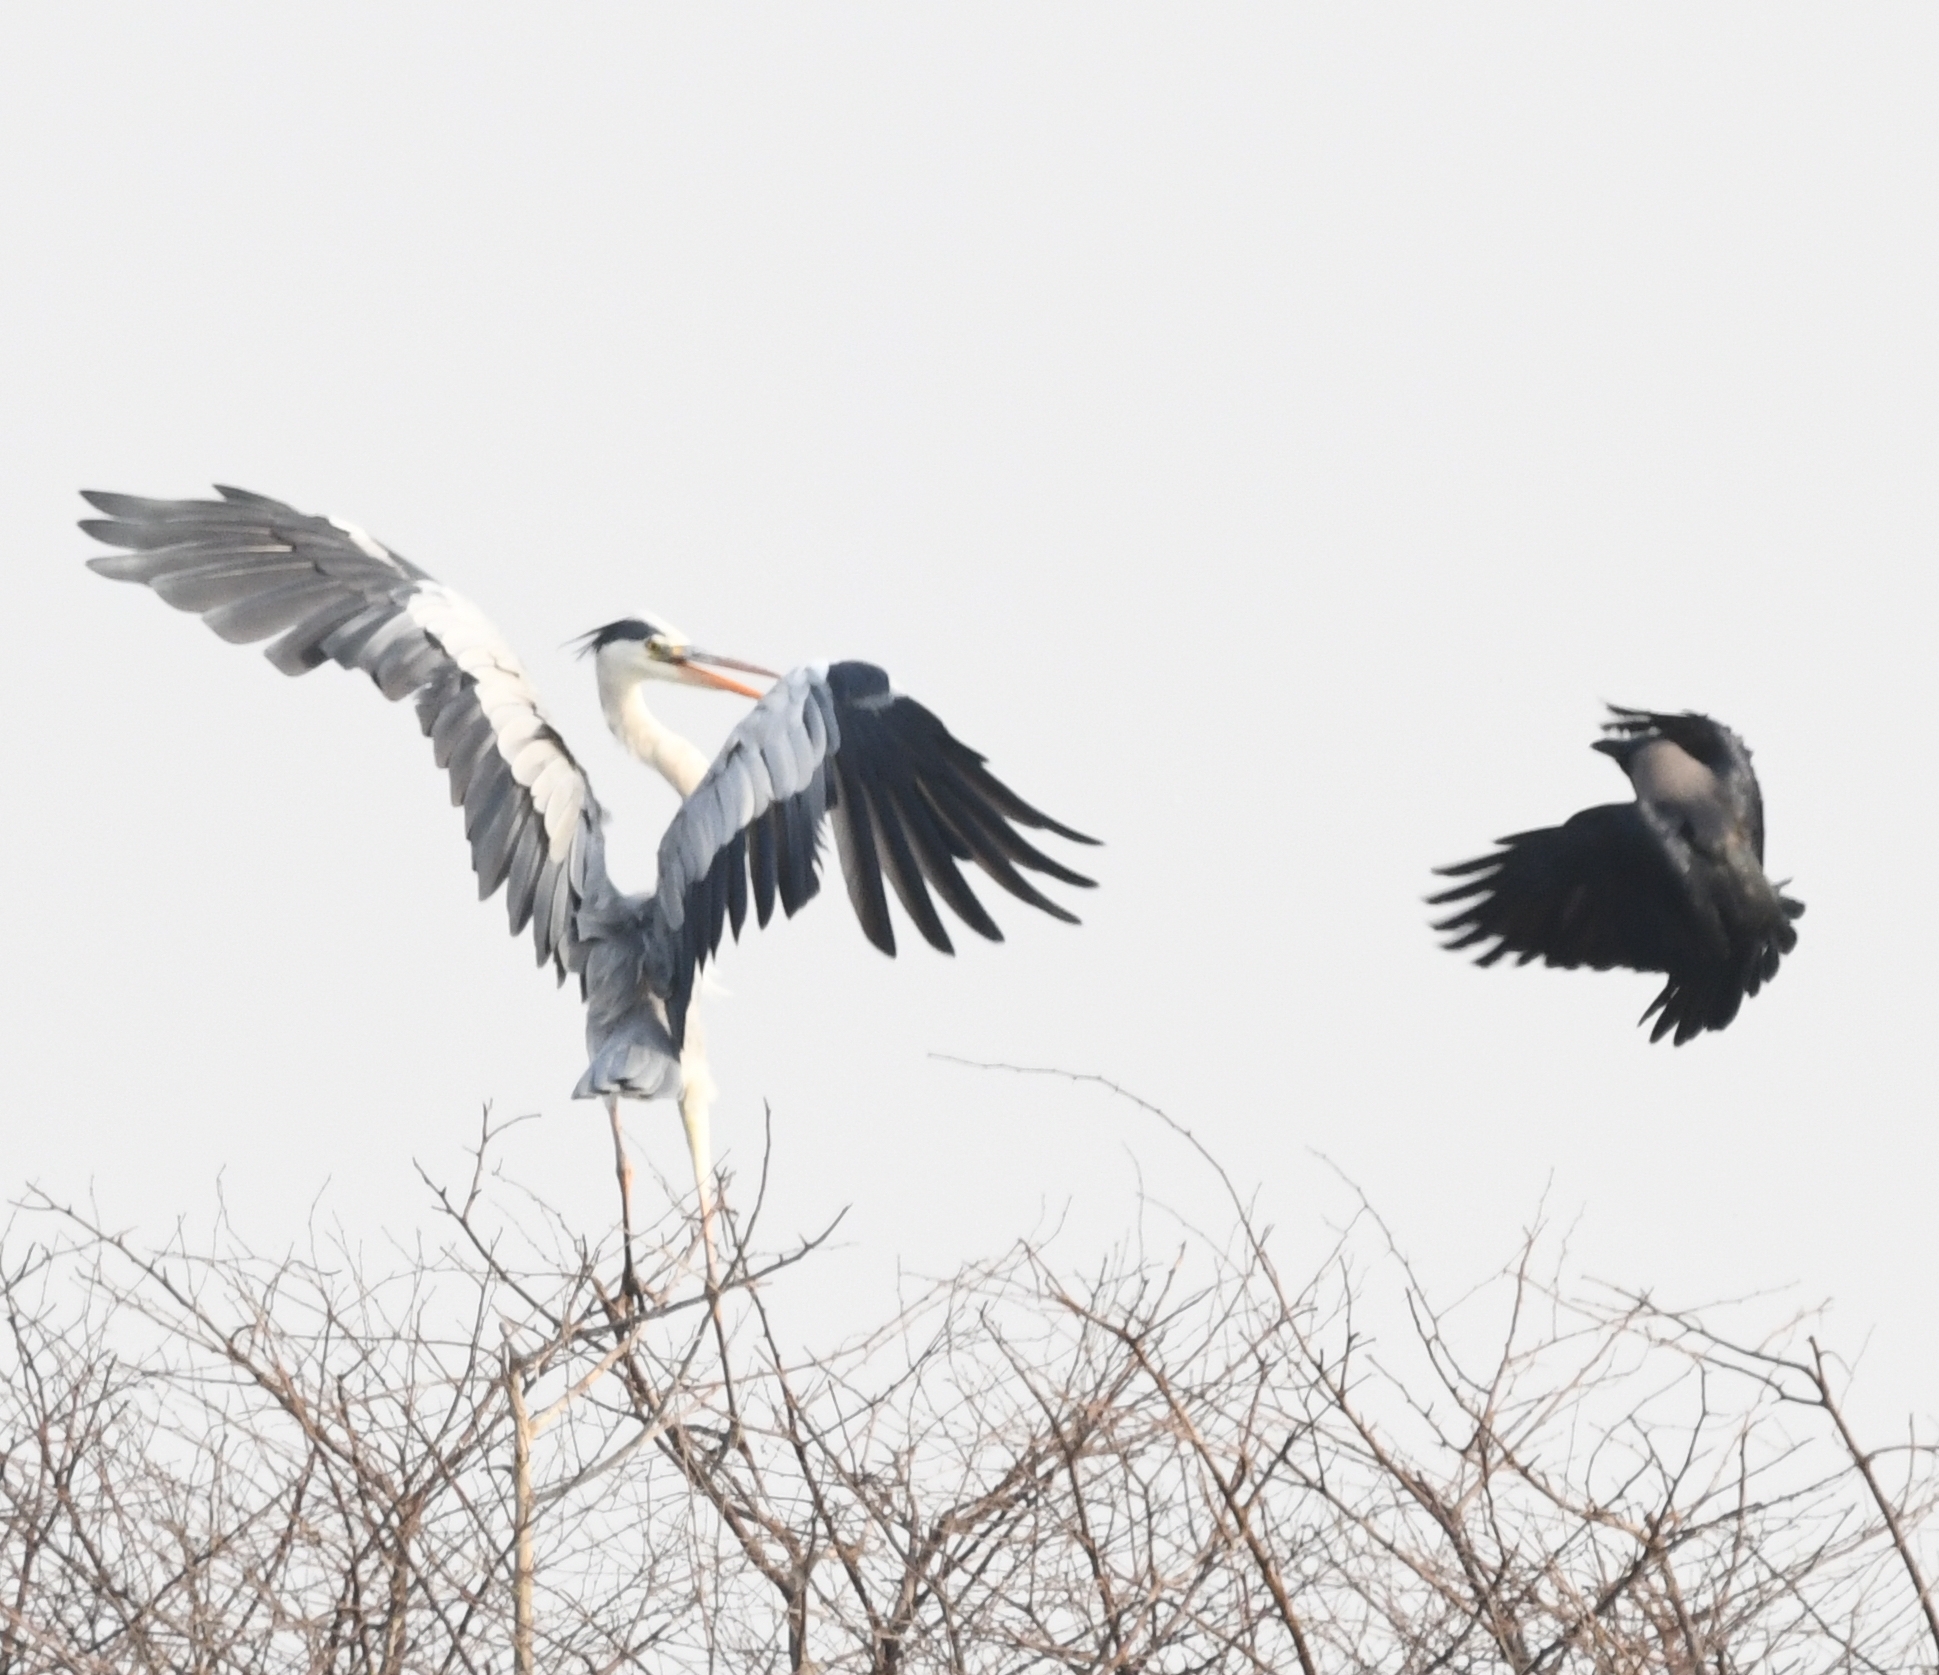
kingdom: Animalia
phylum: Chordata
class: Aves
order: Pelecaniformes
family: Ardeidae
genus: Ardea
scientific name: Ardea cinerea
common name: Grey heron
